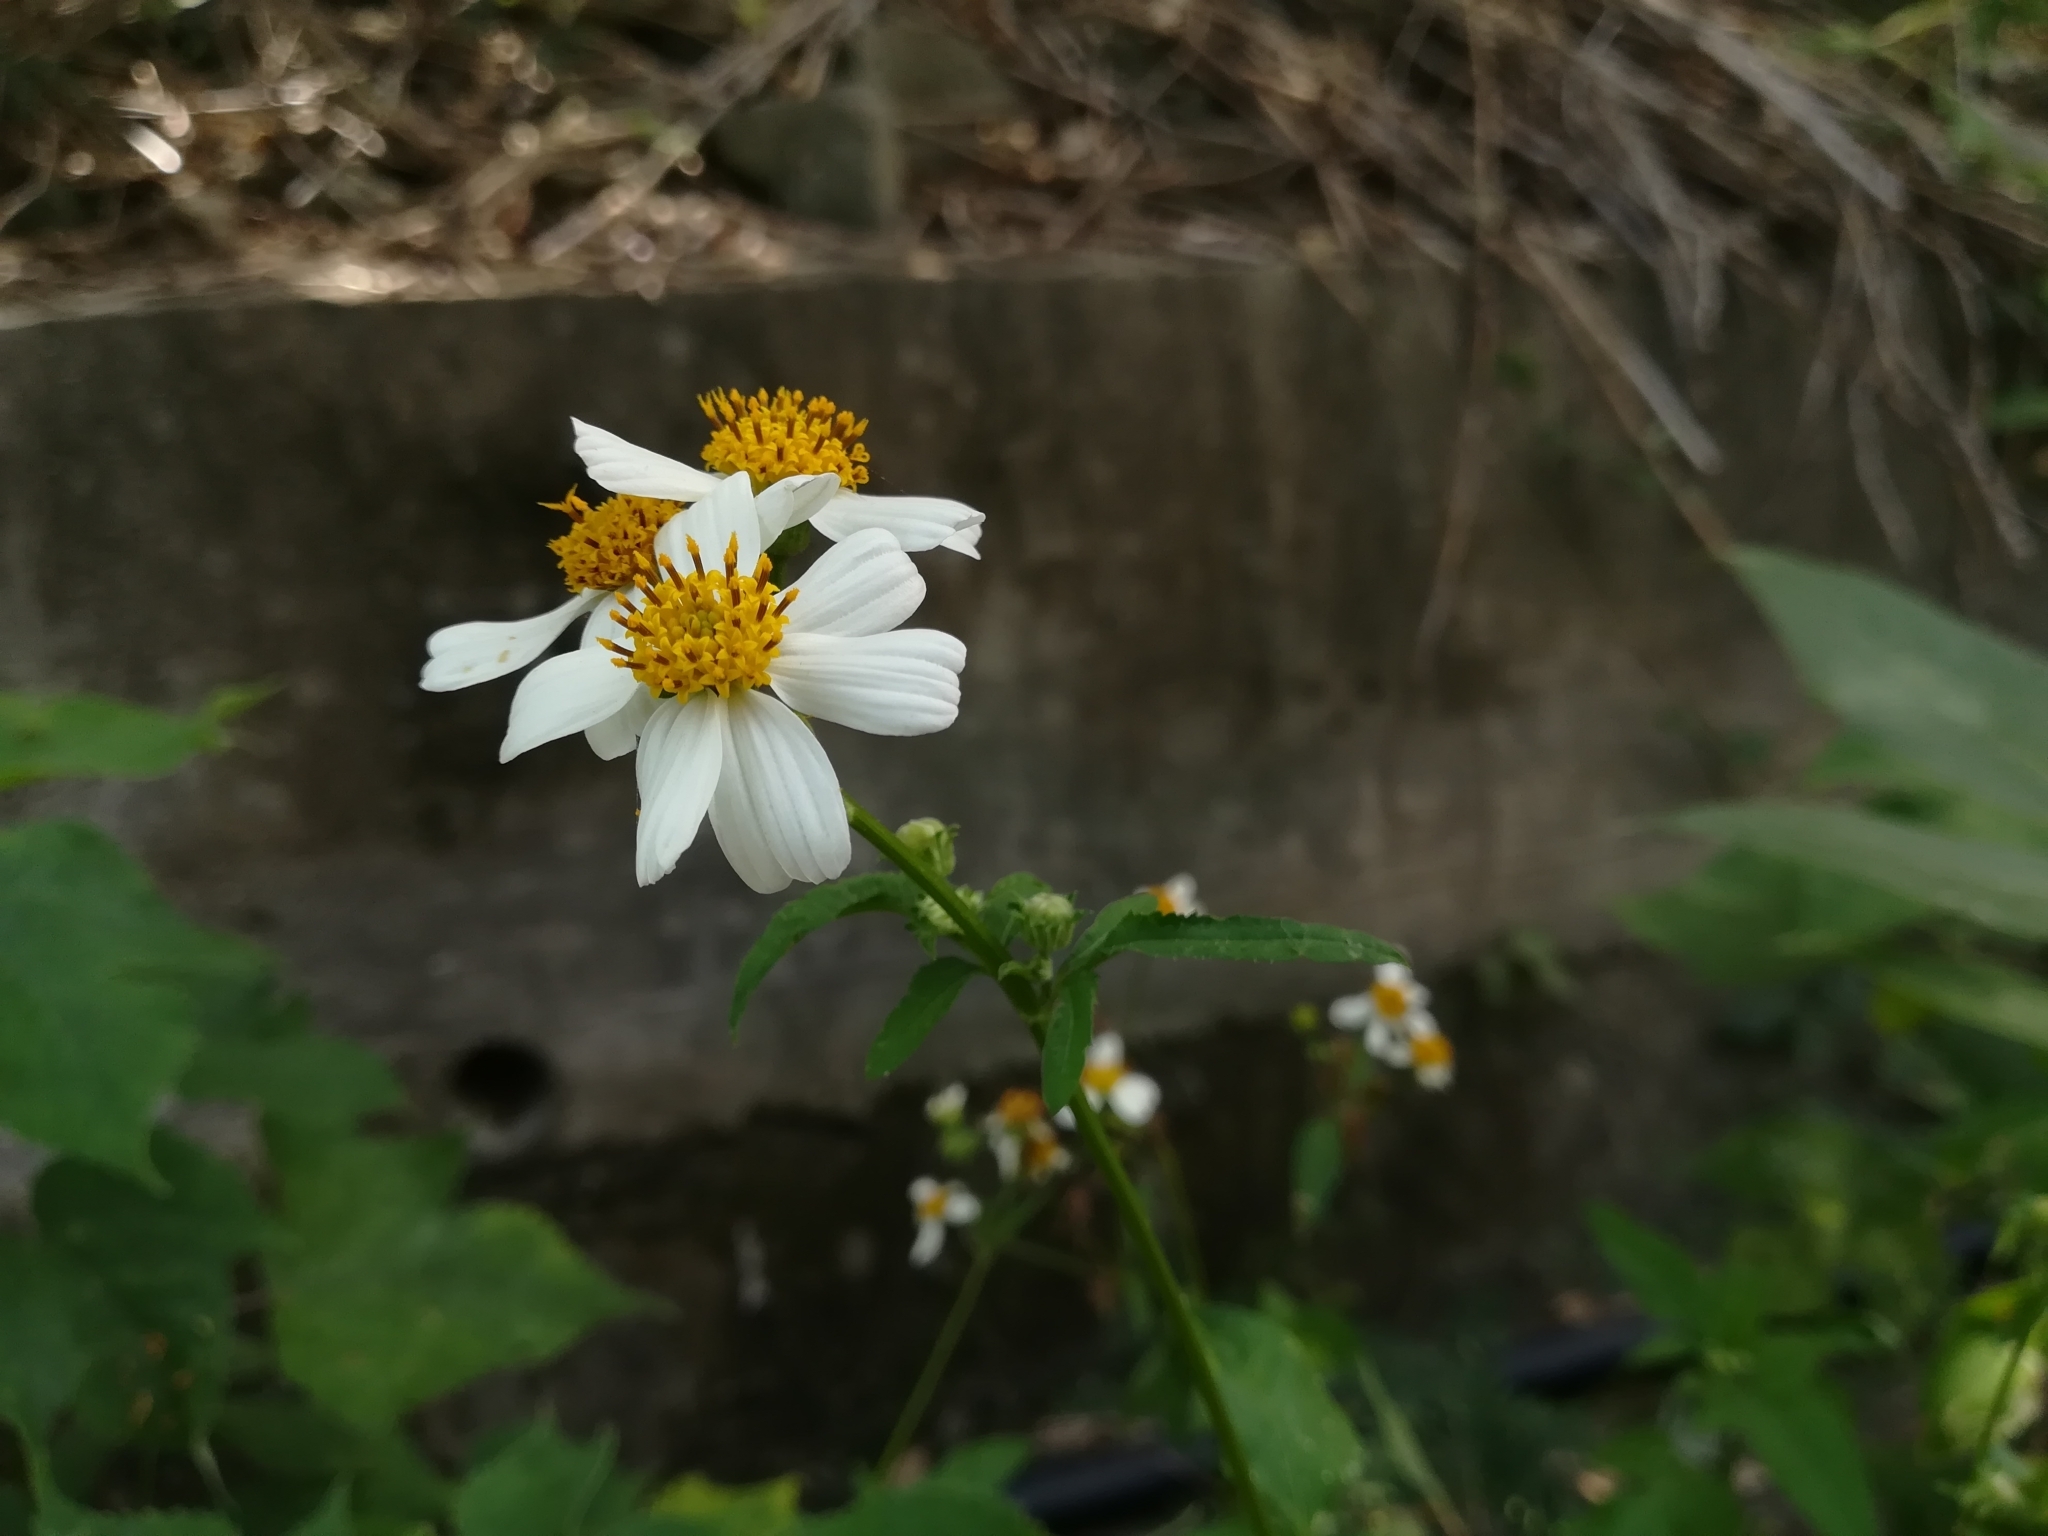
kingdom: Plantae
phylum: Tracheophyta
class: Magnoliopsida
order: Asterales
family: Asteraceae
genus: Bidens
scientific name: Bidens alba
